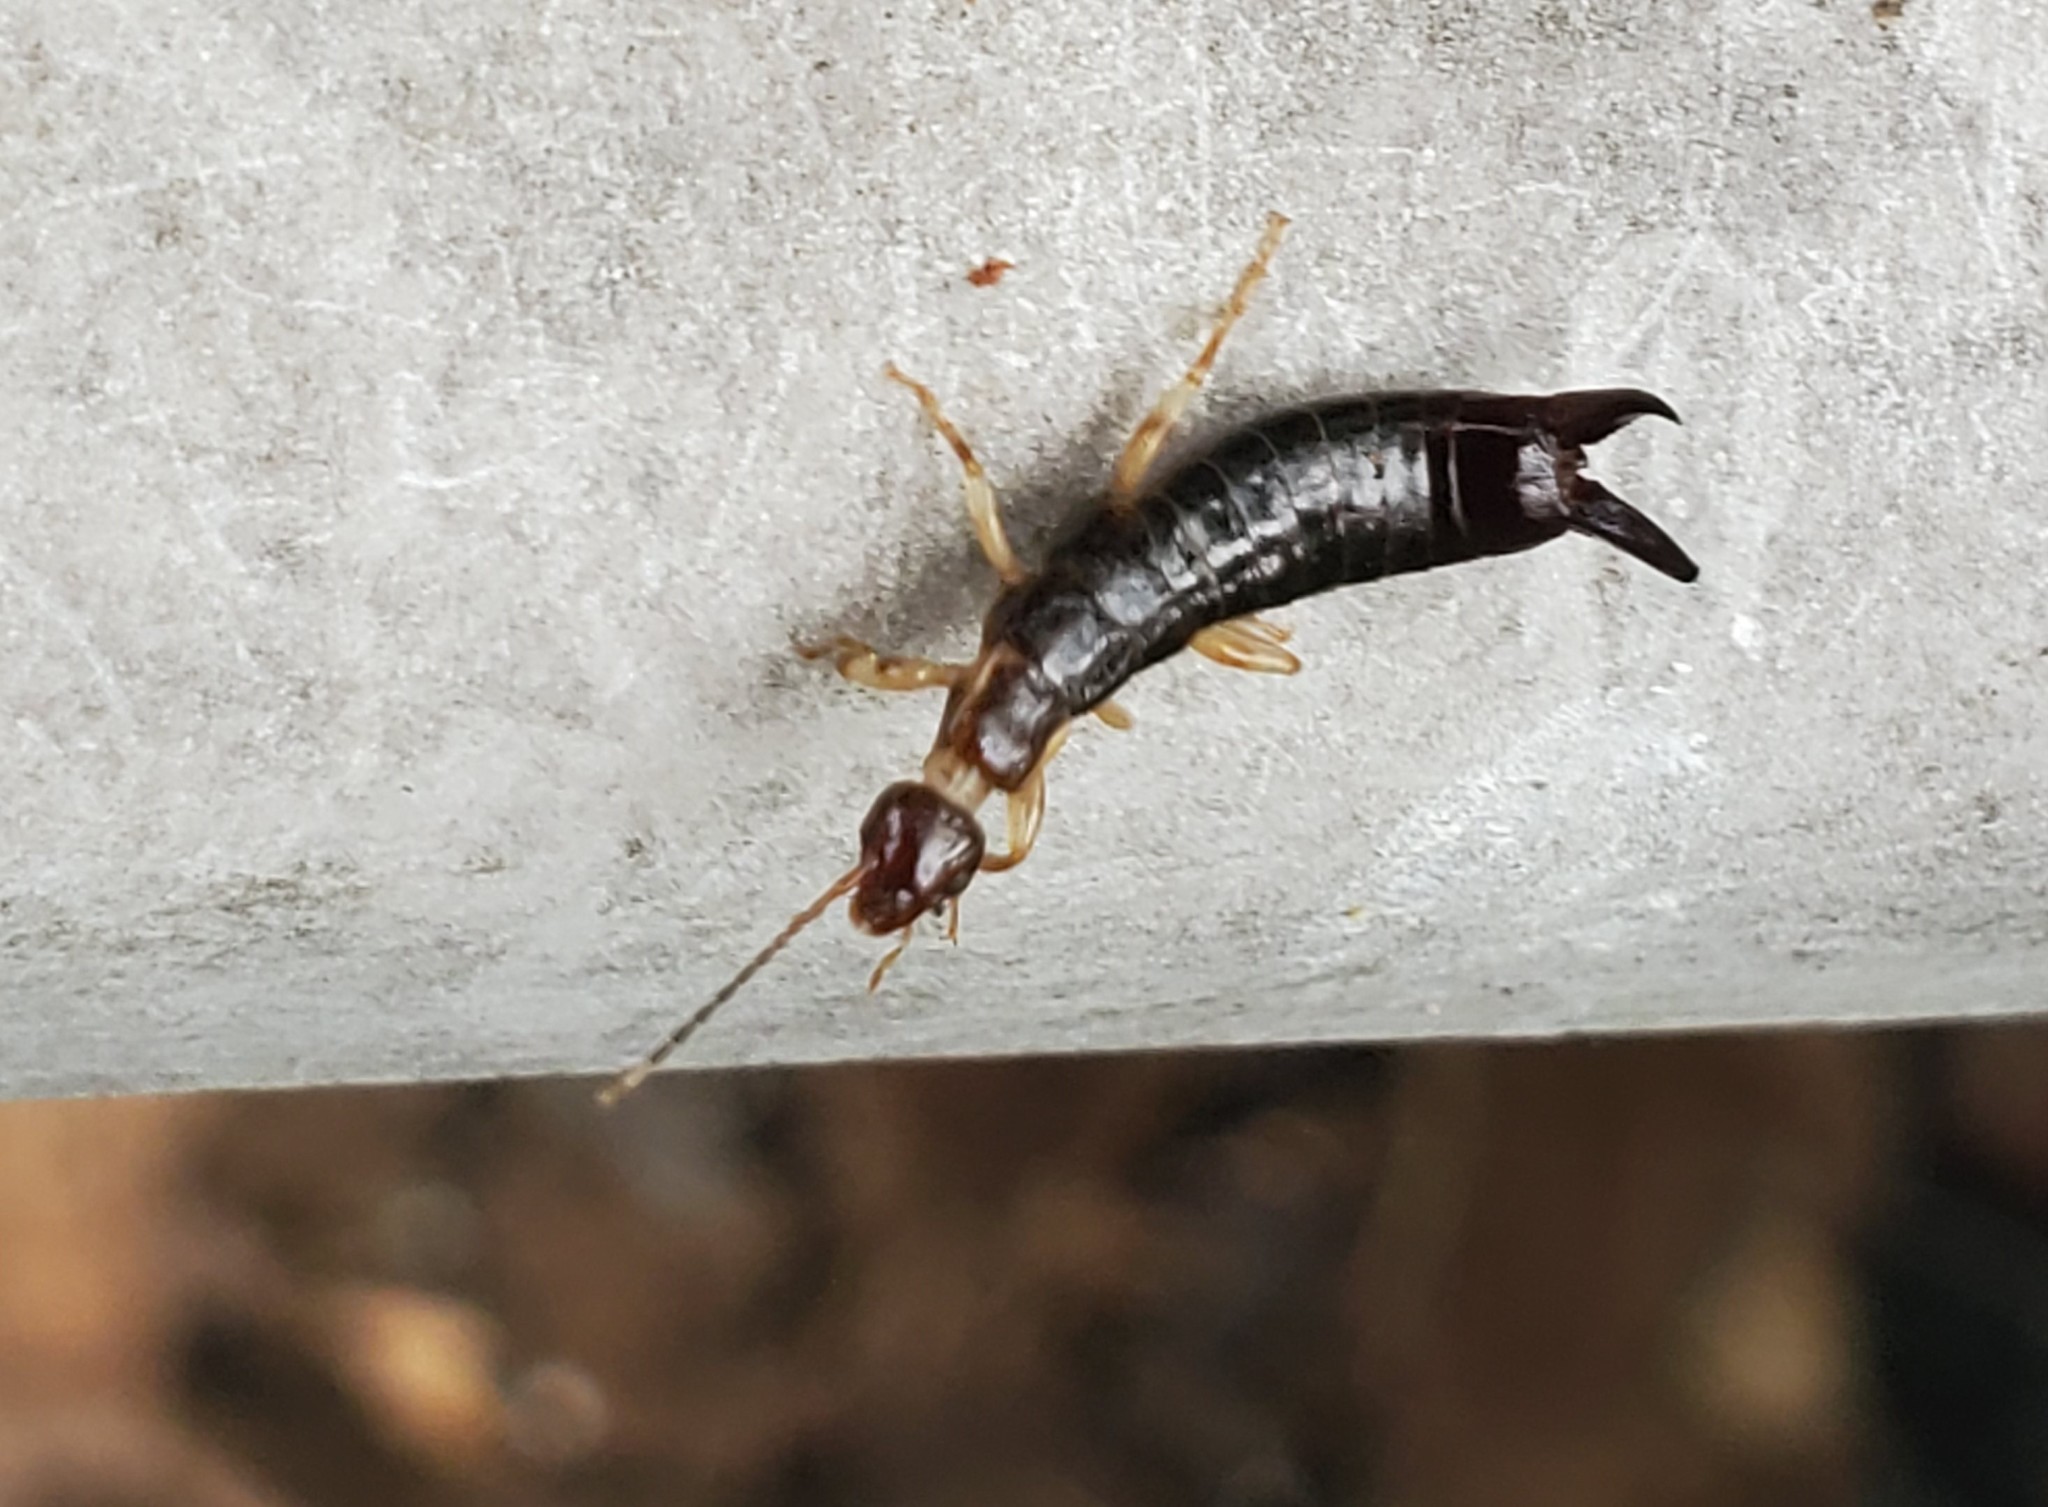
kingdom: Animalia
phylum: Arthropoda
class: Insecta
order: Dermaptera
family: Anisolabididae
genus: Euborellia
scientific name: Euborellia annulipes
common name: Ringlegged earwig
